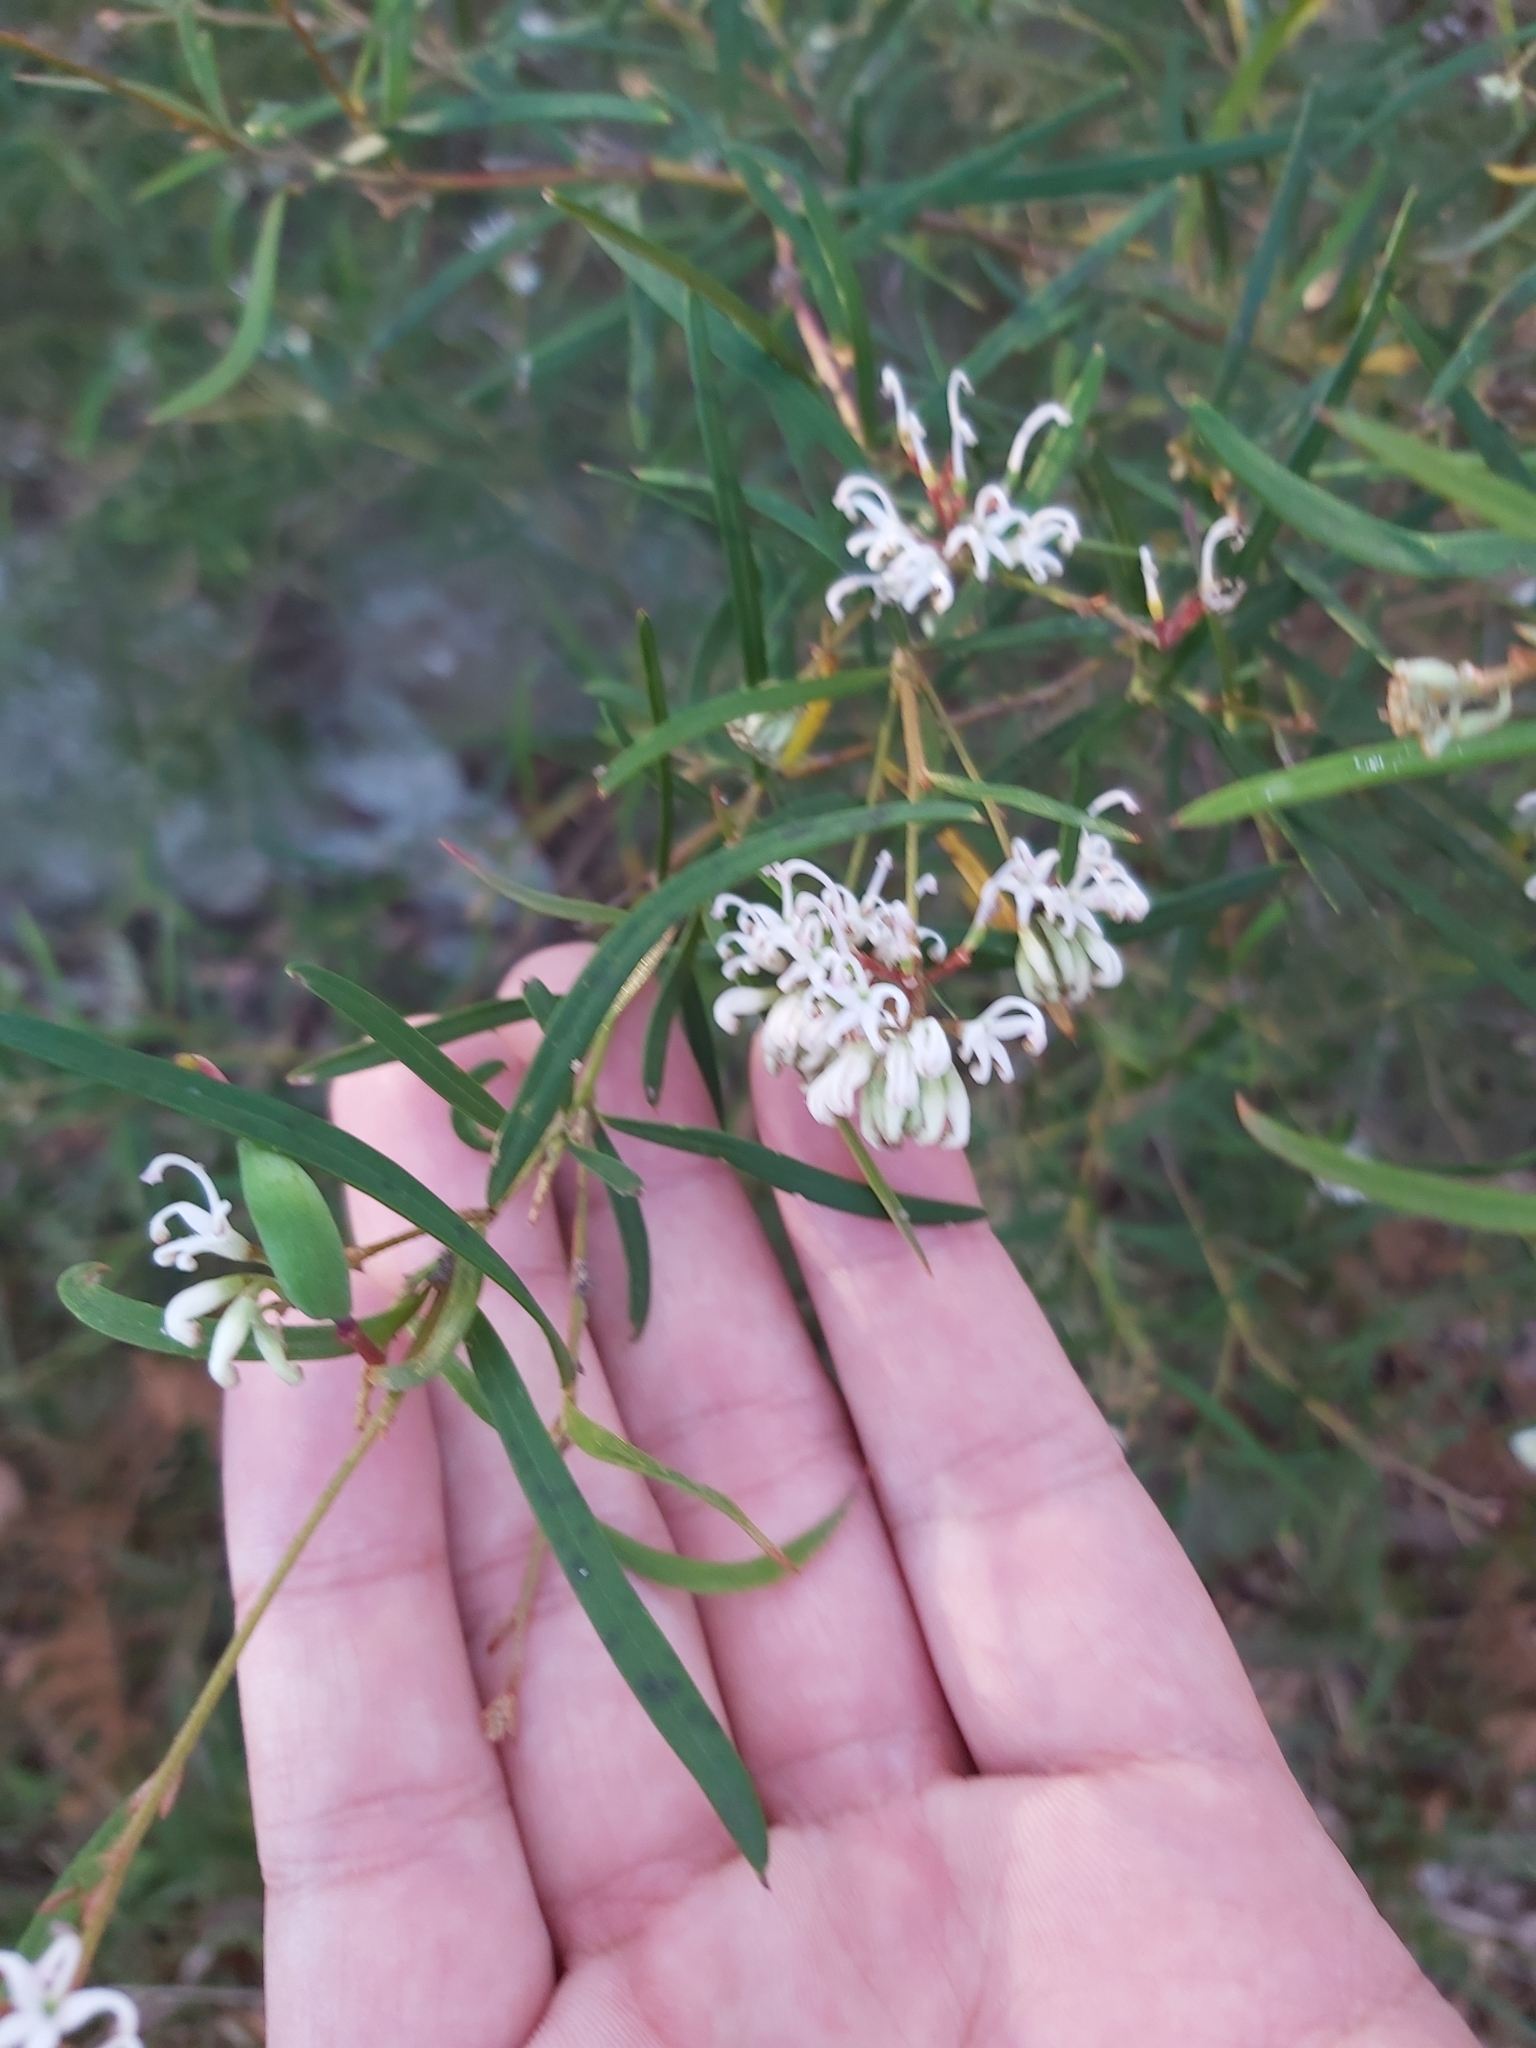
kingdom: Plantae
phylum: Tracheophyta
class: Magnoliopsida
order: Proteales
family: Proteaceae
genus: Grevillea
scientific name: Grevillea linearifolia
